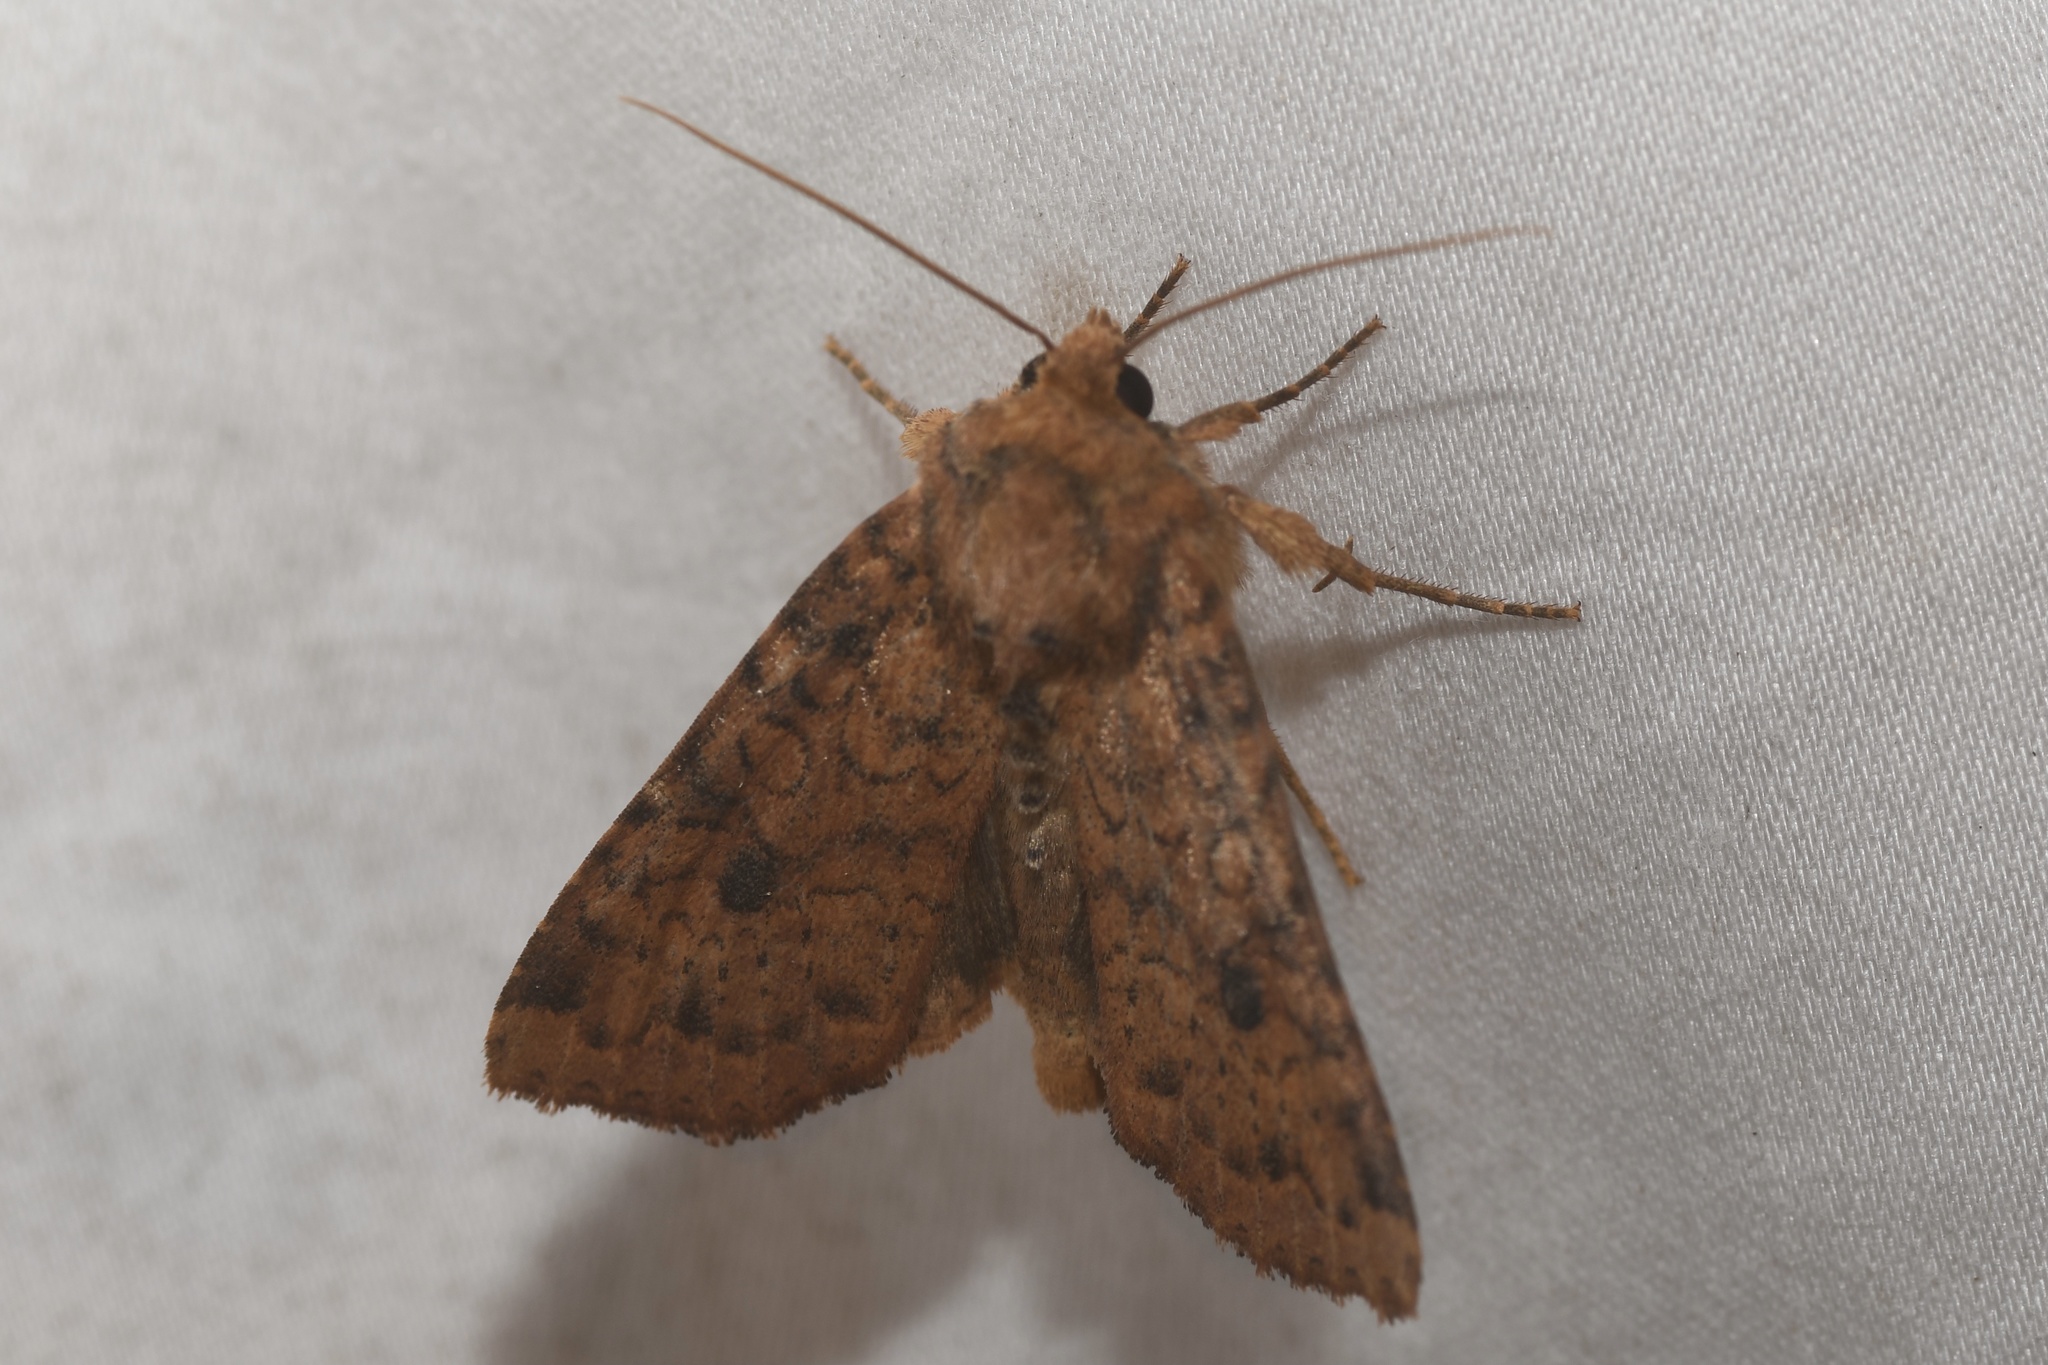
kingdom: Animalia
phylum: Arthropoda
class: Insecta
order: Lepidoptera
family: Noctuidae
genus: Apamea
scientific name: Apamea helva
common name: Yellow three-spot
